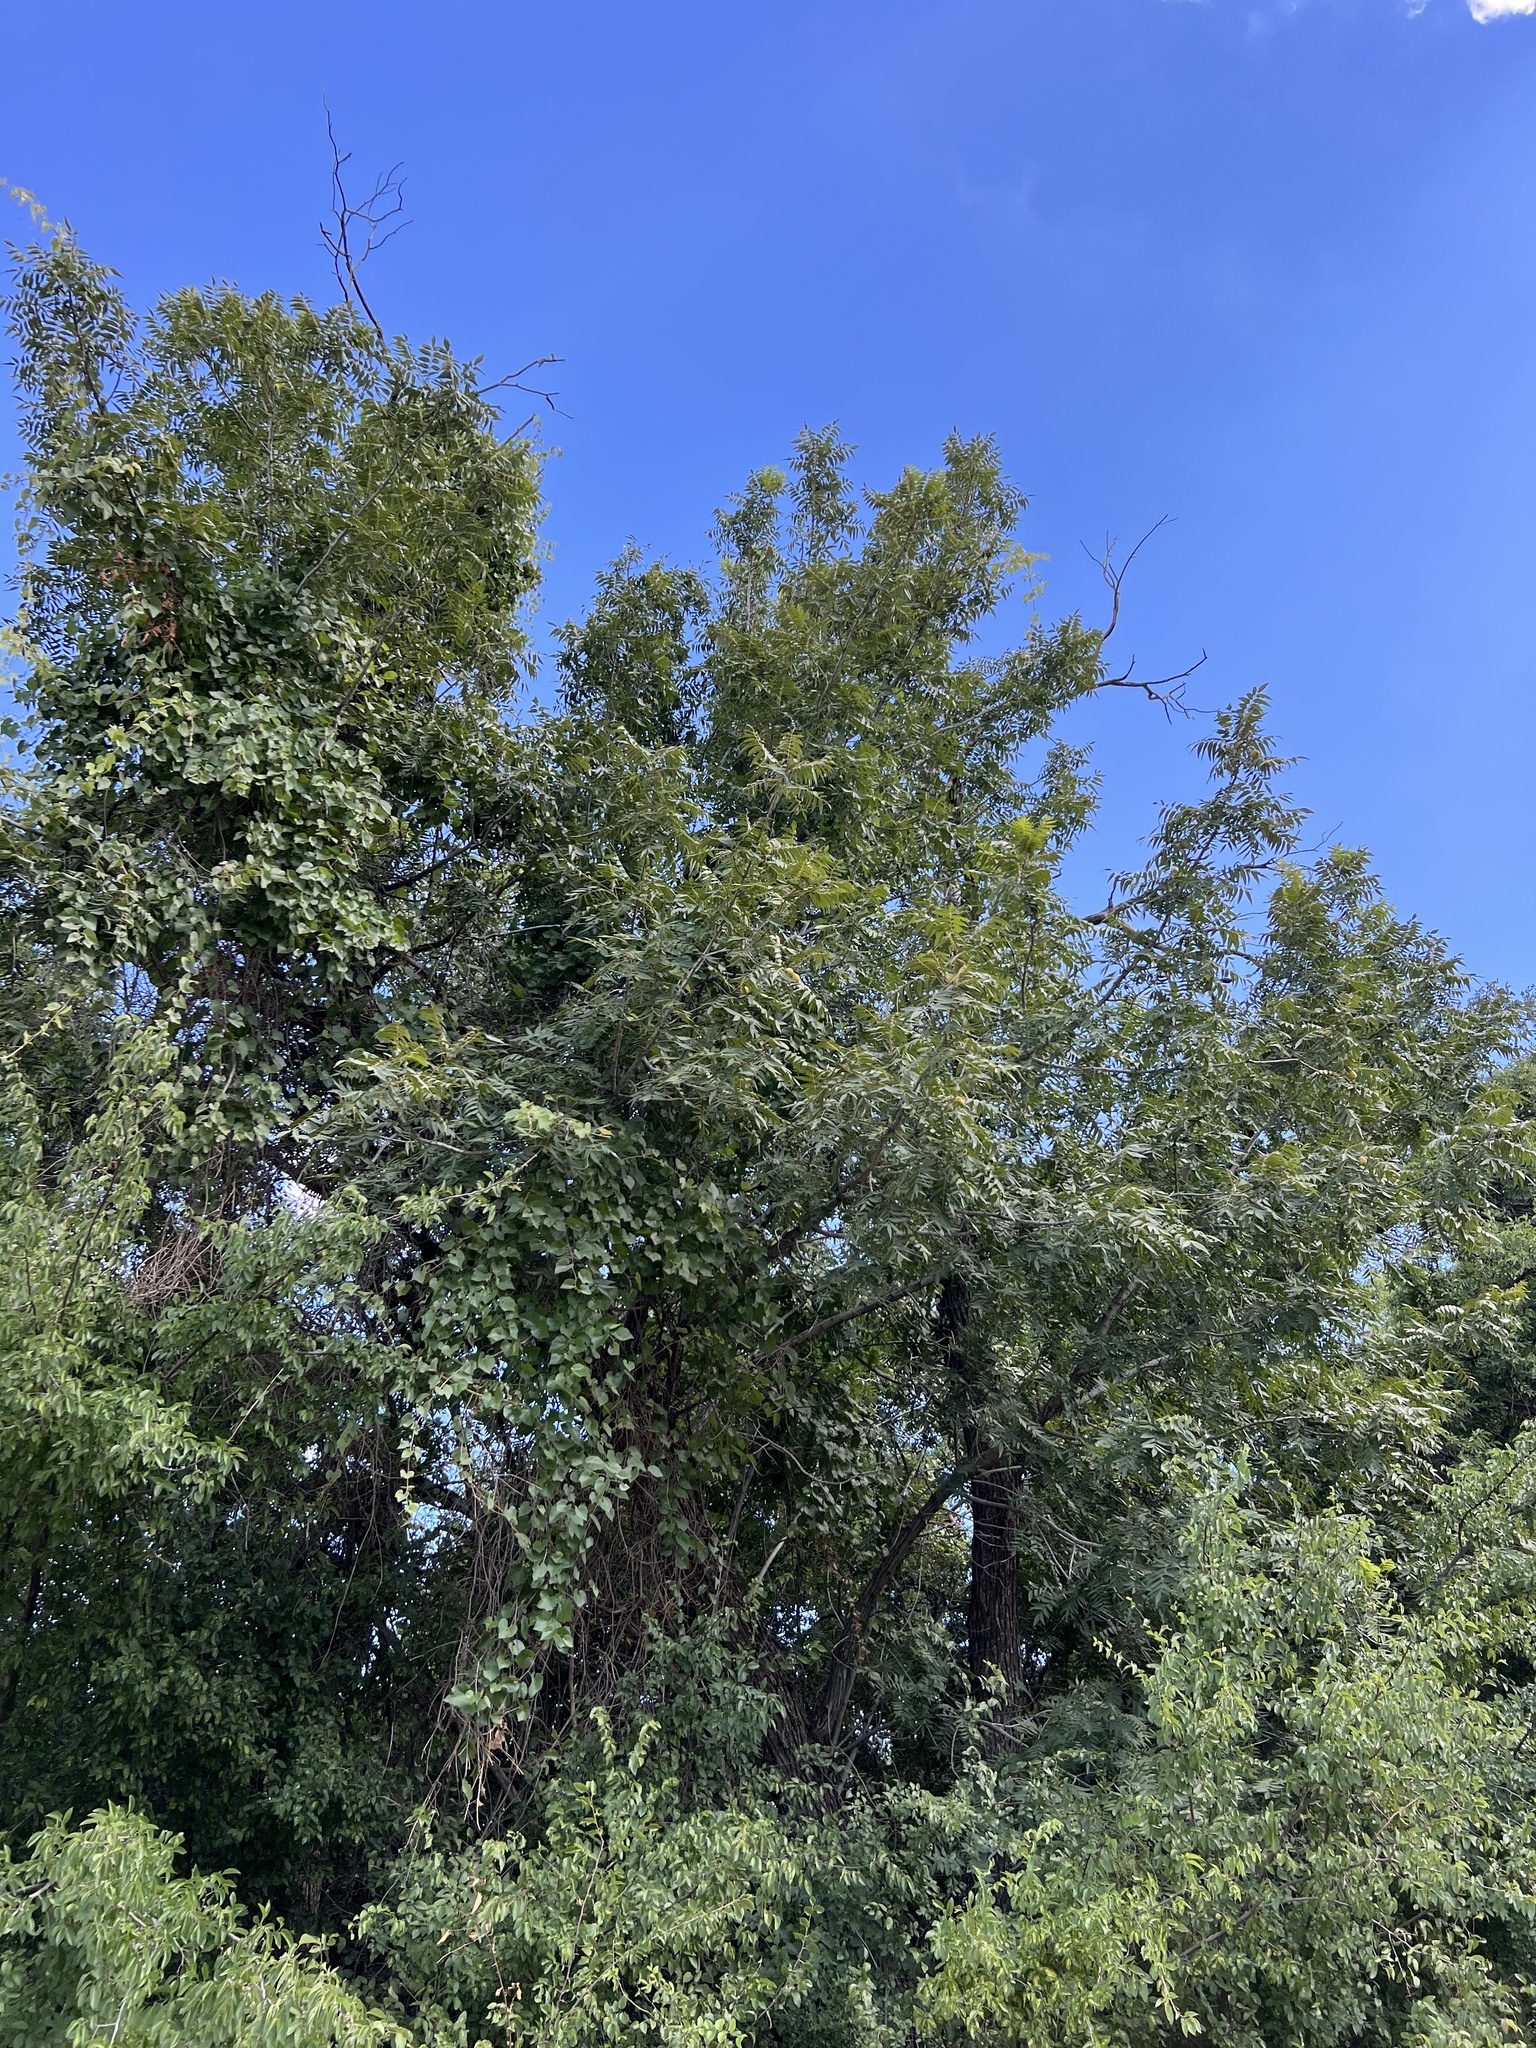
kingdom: Plantae
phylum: Tracheophyta
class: Magnoliopsida
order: Fagales
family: Juglandaceae
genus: Juglans
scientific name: Juglans major
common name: Arizona walnut
